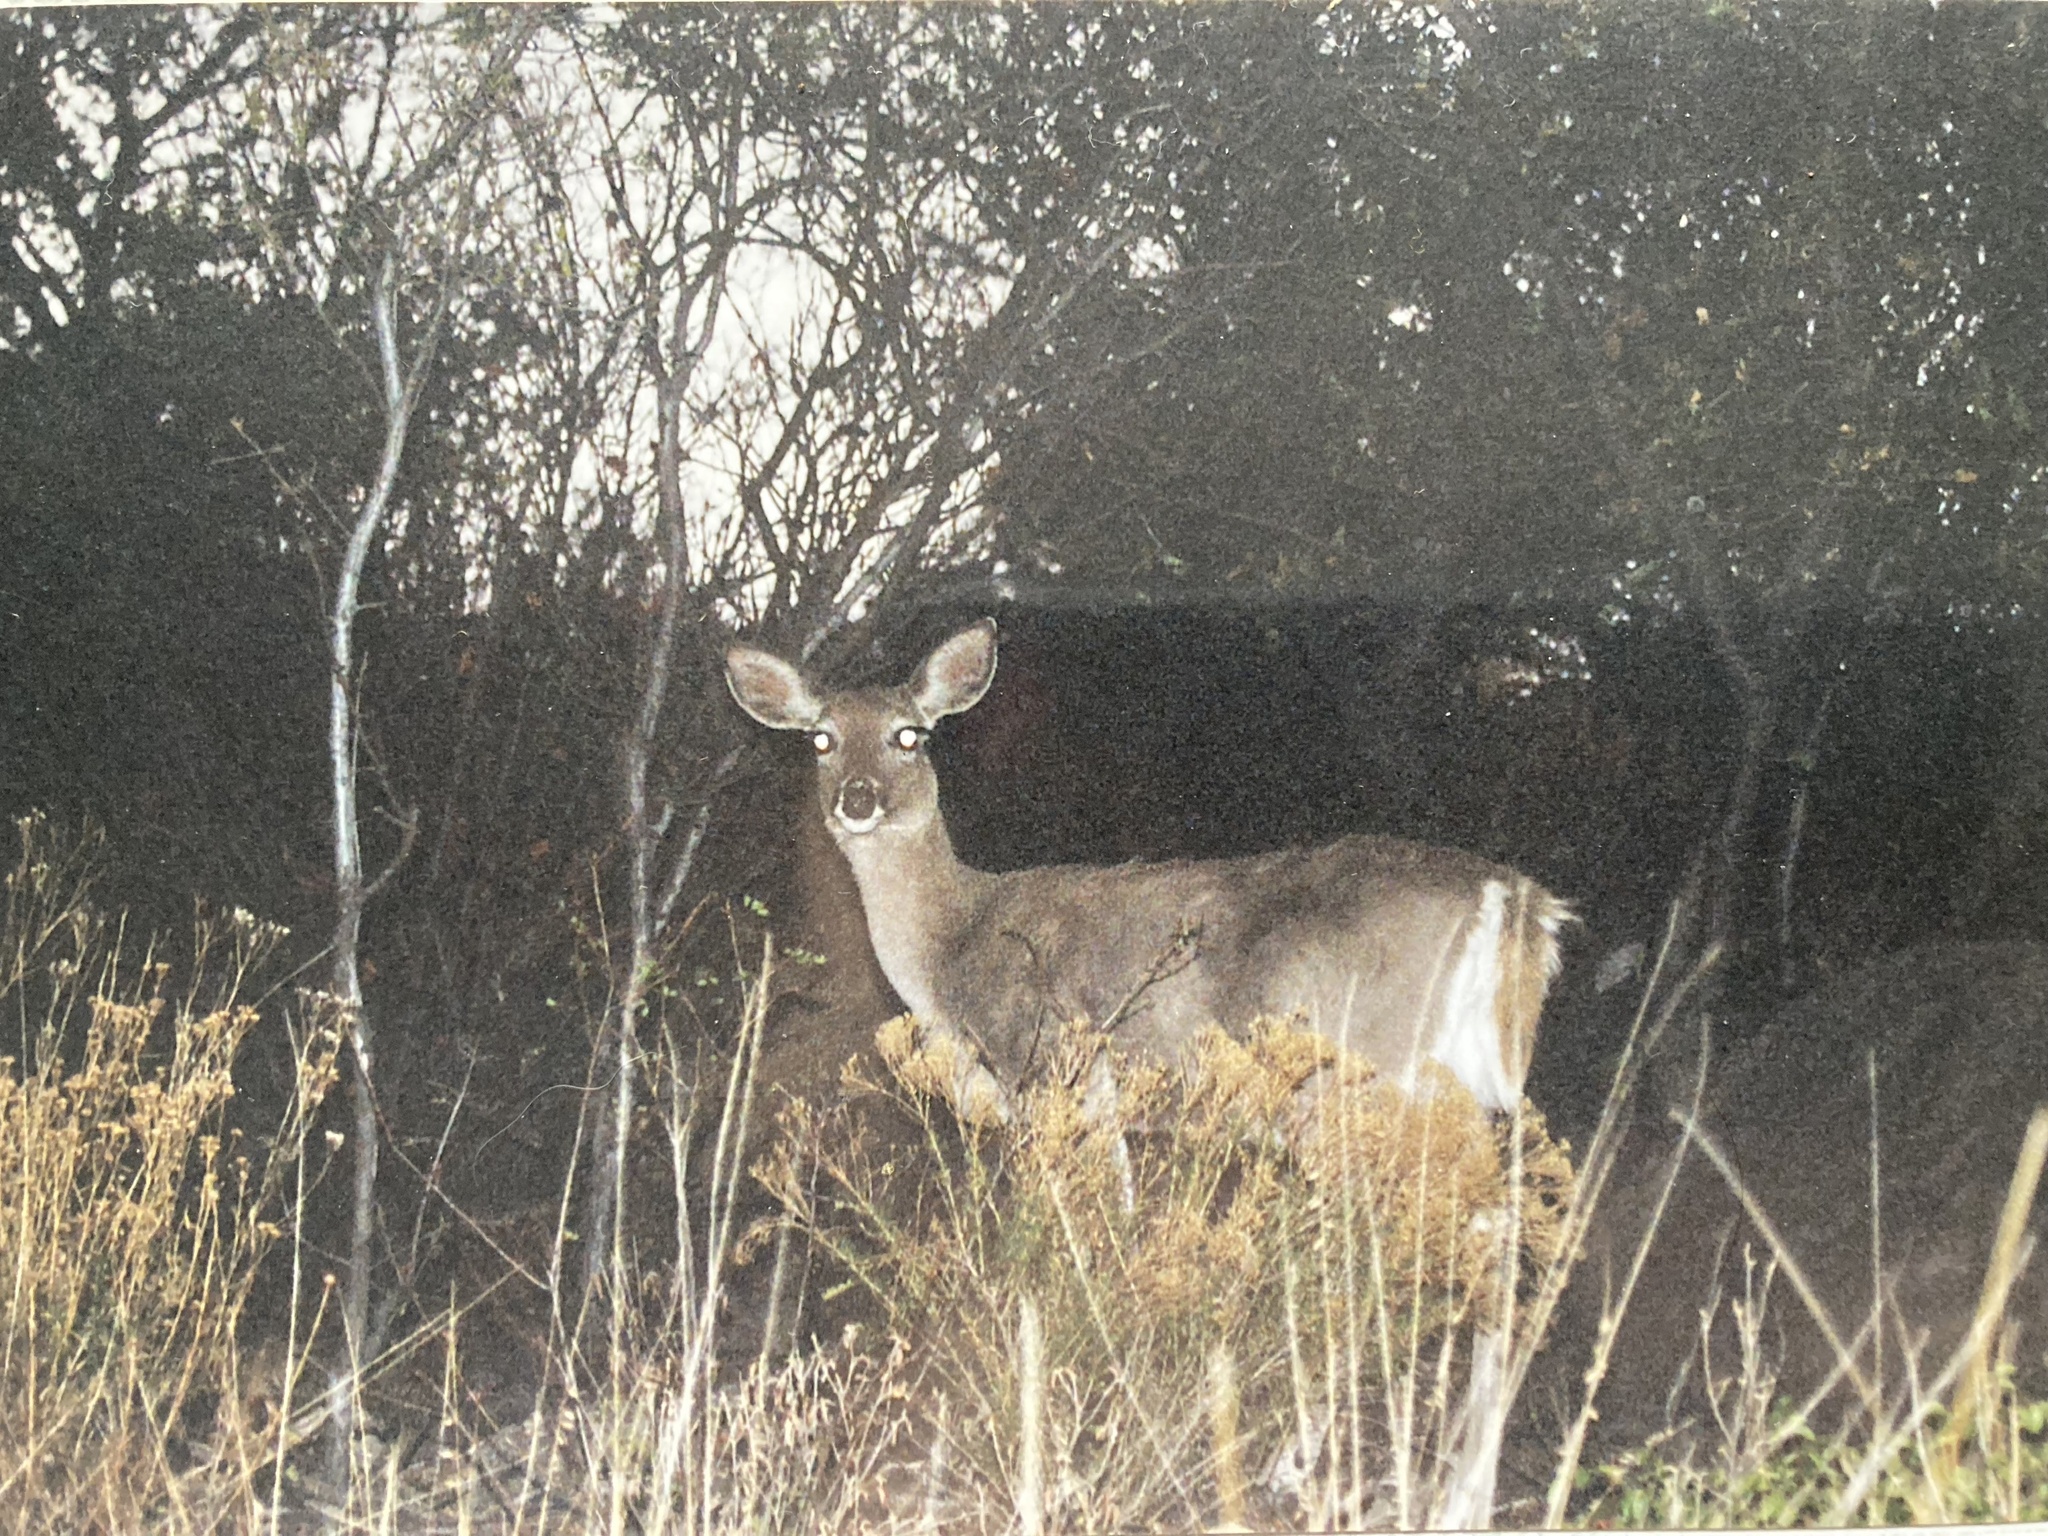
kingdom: Animalia
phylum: Chordata
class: Mammalia
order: Artiodactyla
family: Cervidae
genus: Odocoileus
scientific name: Odocoileus virginianus
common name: White-tailed deer
